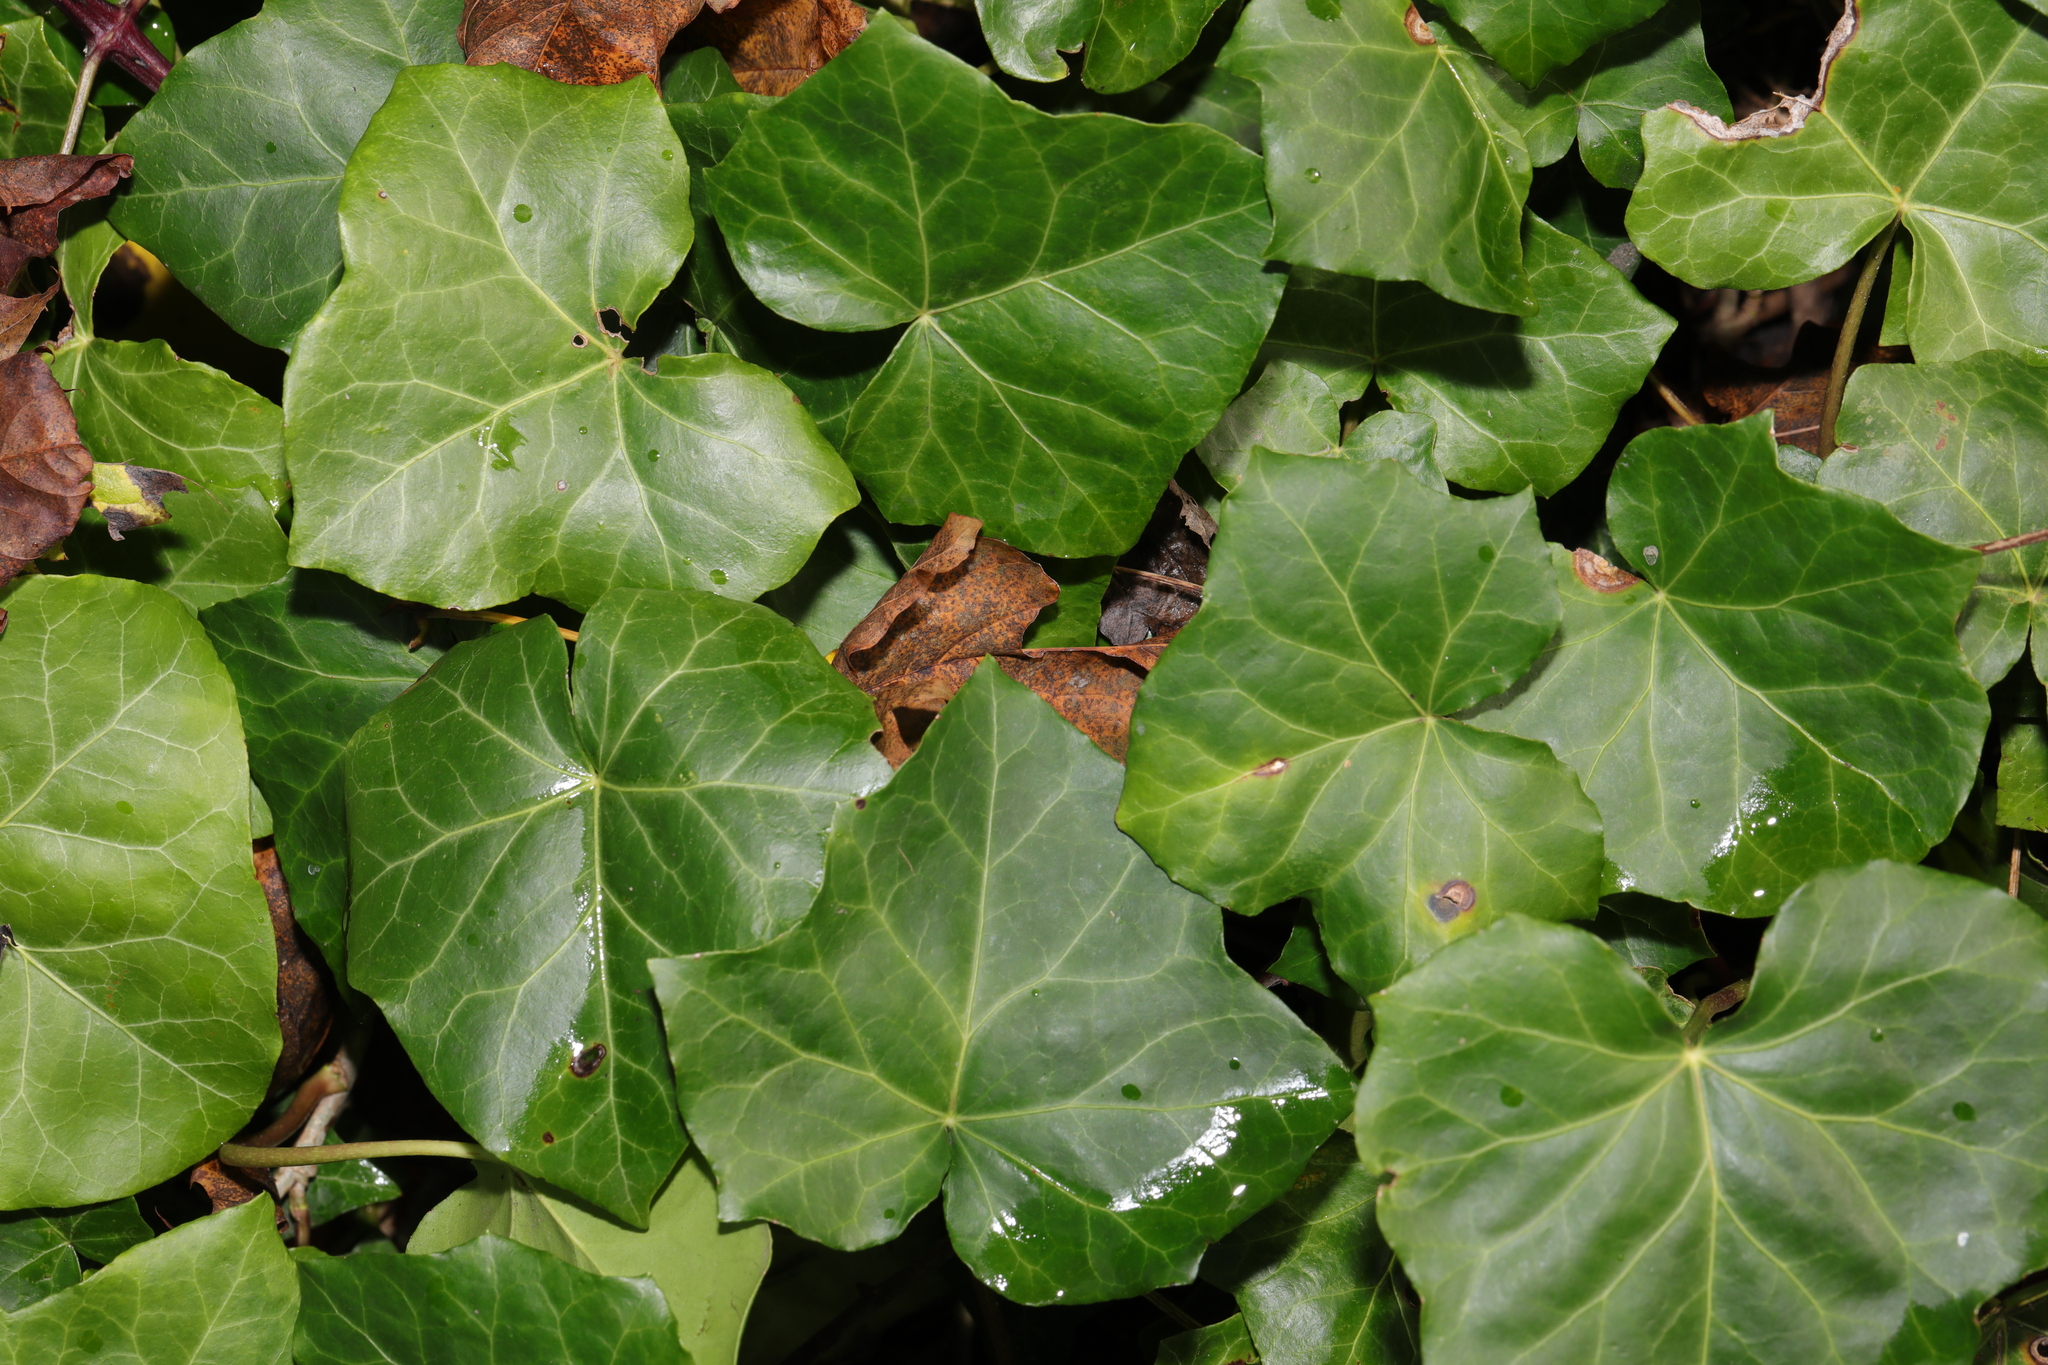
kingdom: Plantae
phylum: Tracheophyta
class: Magnoliopsida
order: Apiales
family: Araliaceae
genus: Hedera
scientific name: Hedera helix
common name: Ivy
